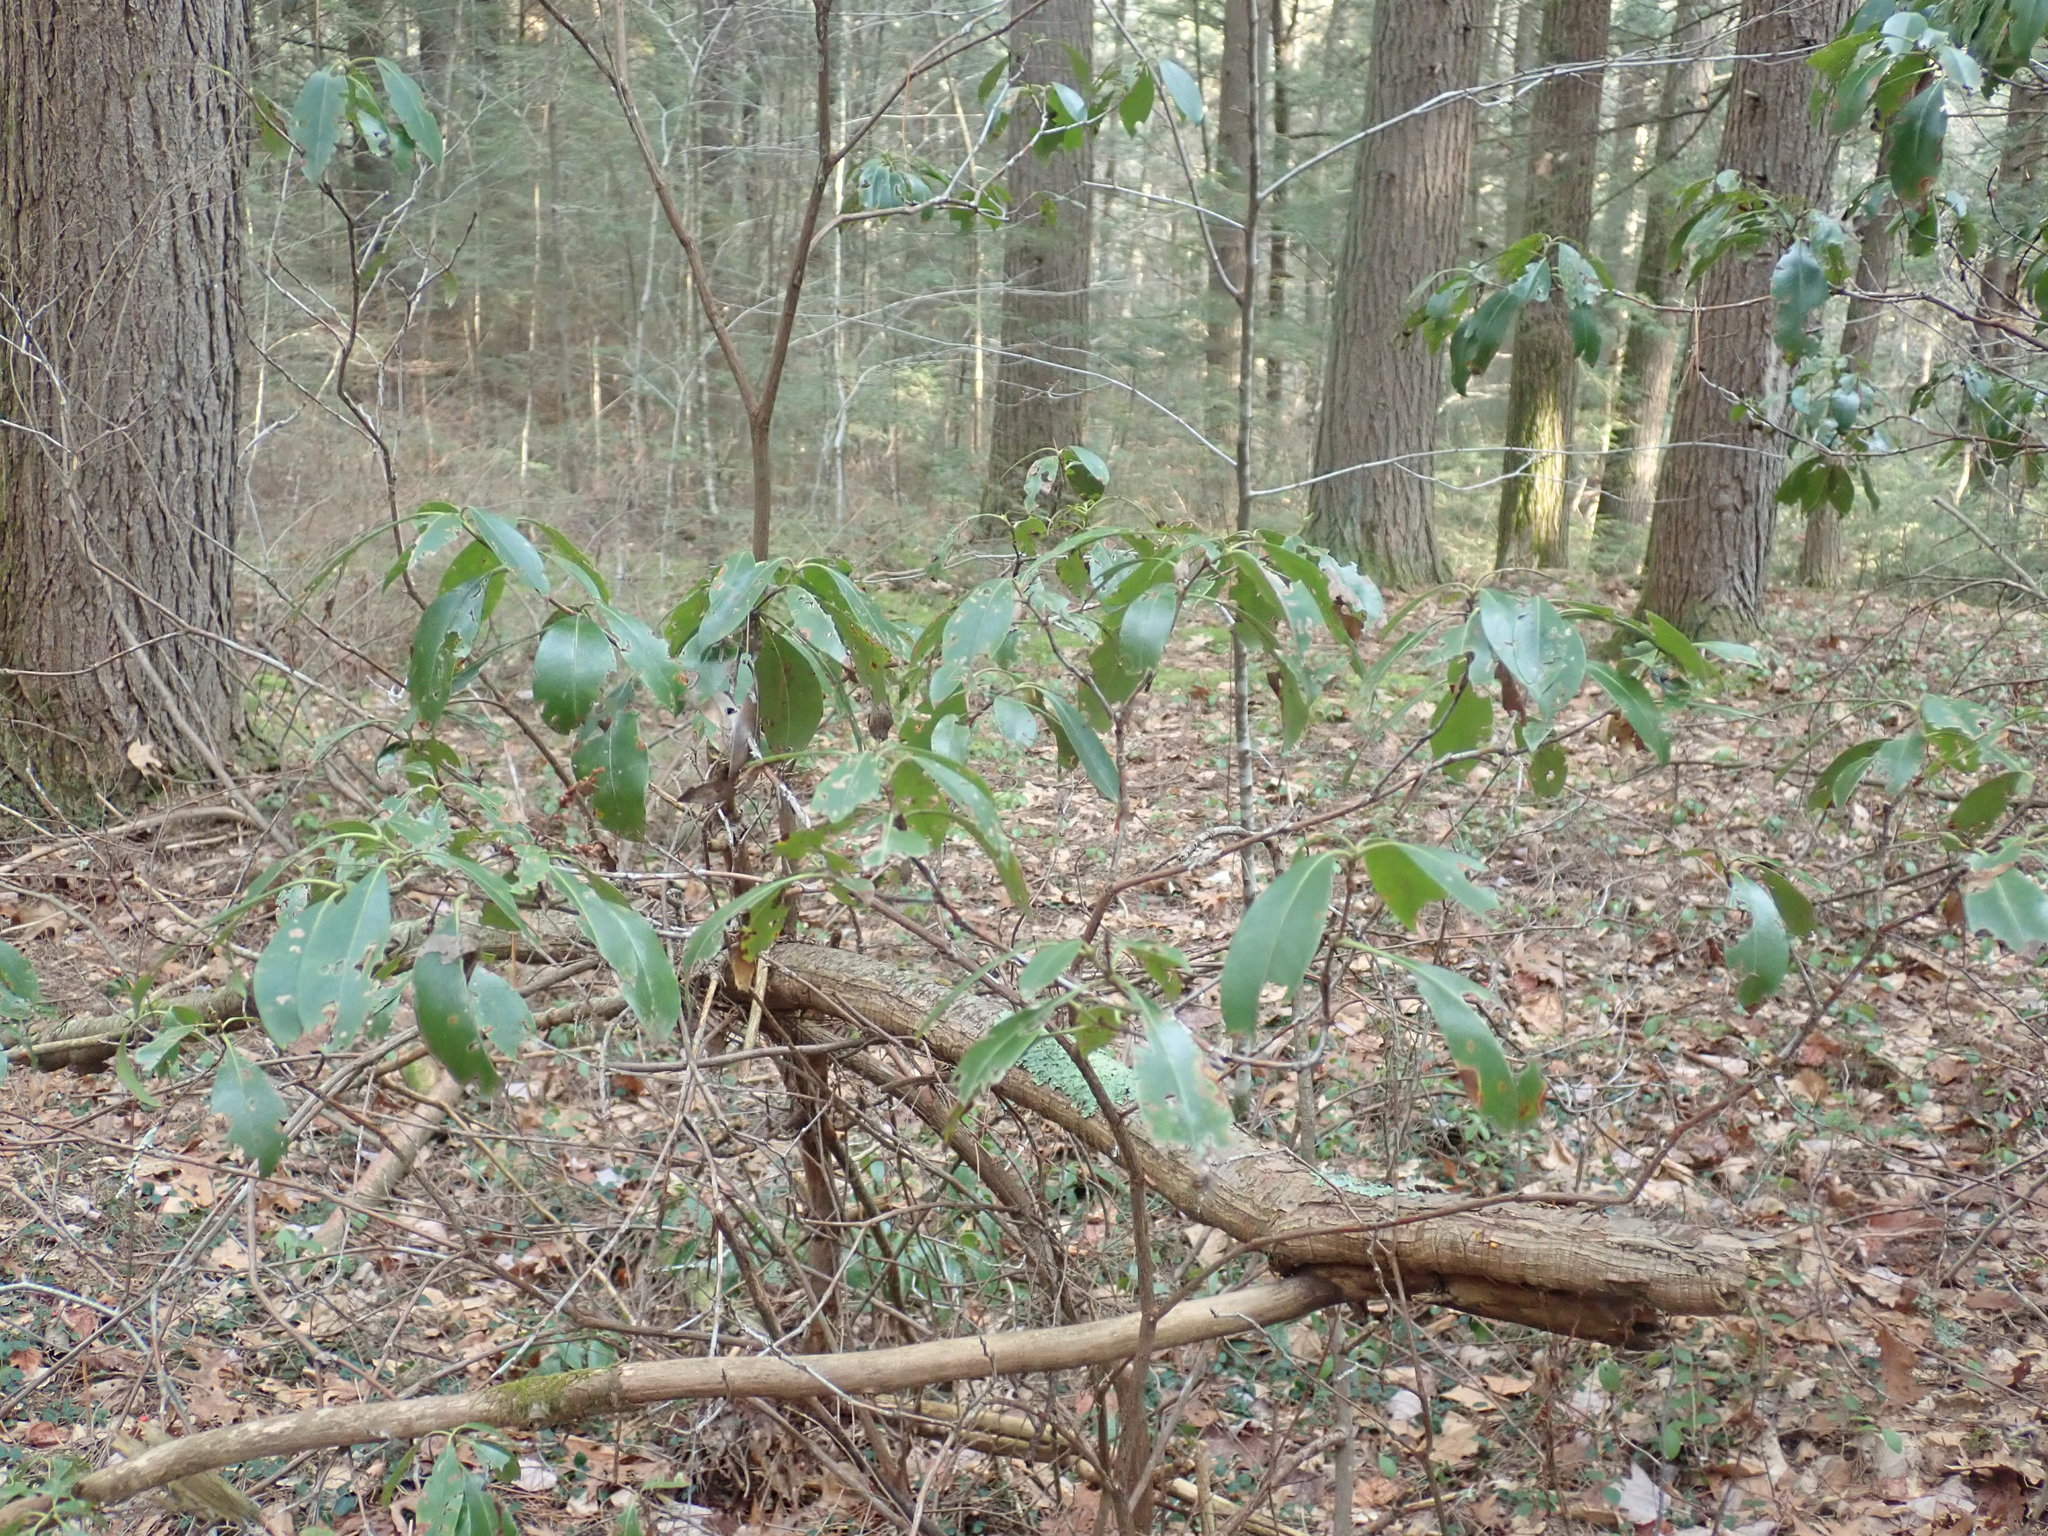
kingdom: Plantae
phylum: Tracheophyta
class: Magnoliopsida
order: Ericales
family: Ericaceae
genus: Kalmia
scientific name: Kalmia latifolia
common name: Mountain-laurel
